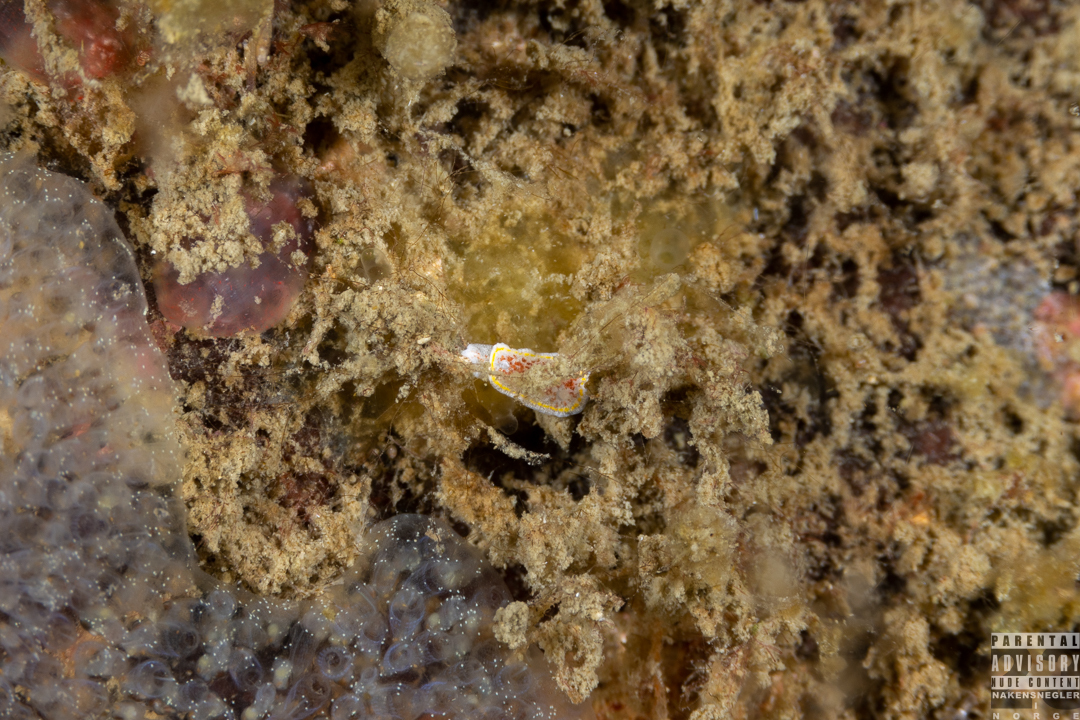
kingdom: Animalia
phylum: Mollusca
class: Gastropoda
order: Nudibranchia
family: Calycidorididae
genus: Diaphorodoris
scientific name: Diaphorodoris luteocincta
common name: Fried egg nudibranch
